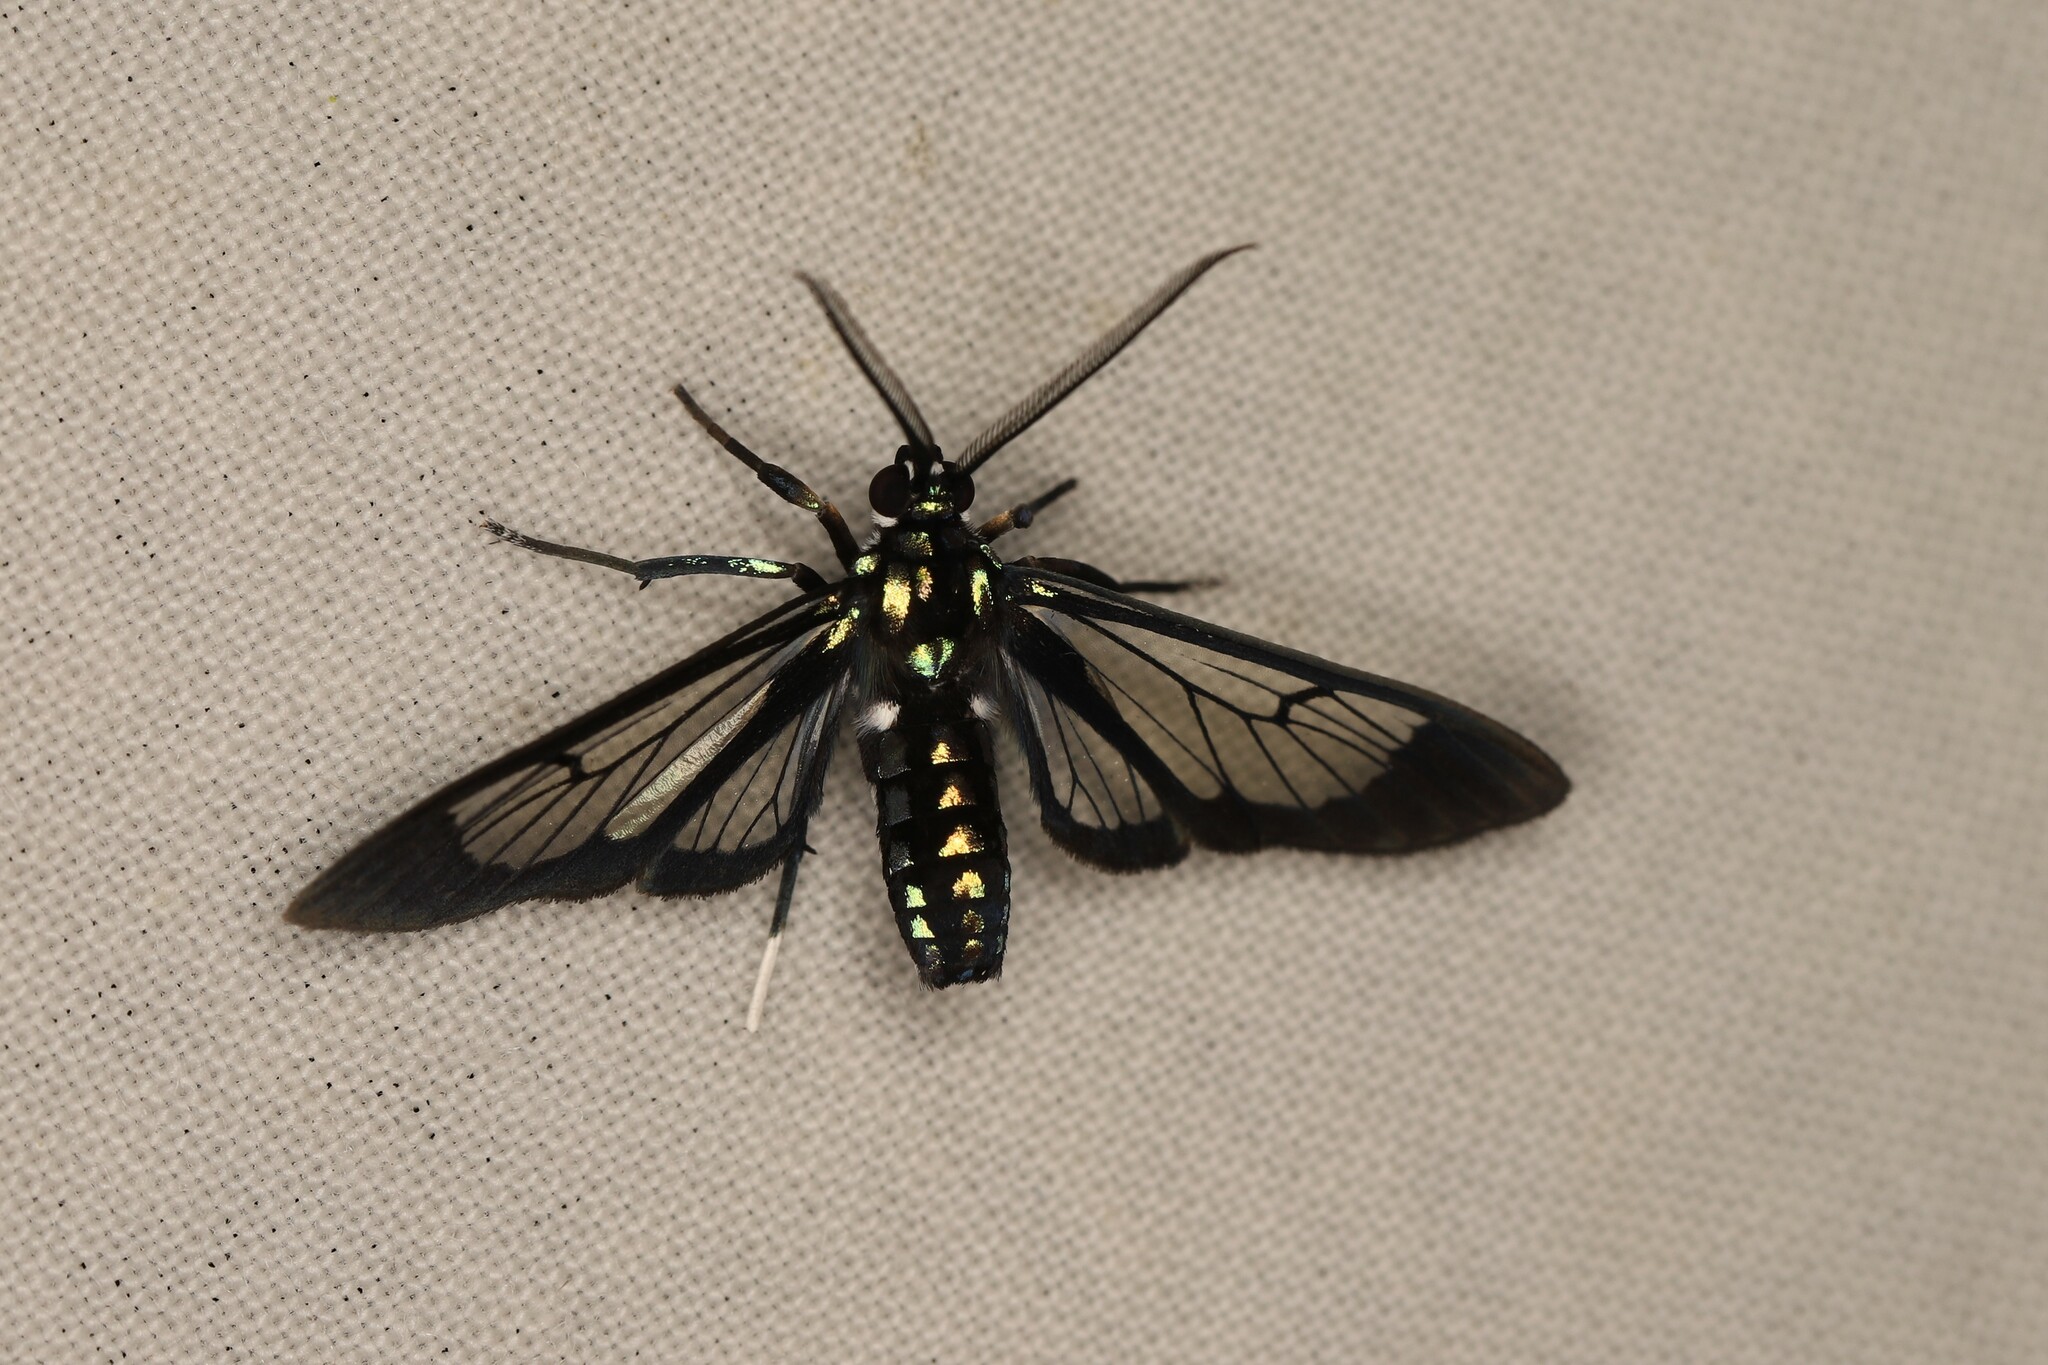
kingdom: Animalia
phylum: Arthropoda
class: Insecta
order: Lepidoptera
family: Erebidae
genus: Cosmosoma
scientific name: Cosmosoma metallescens
